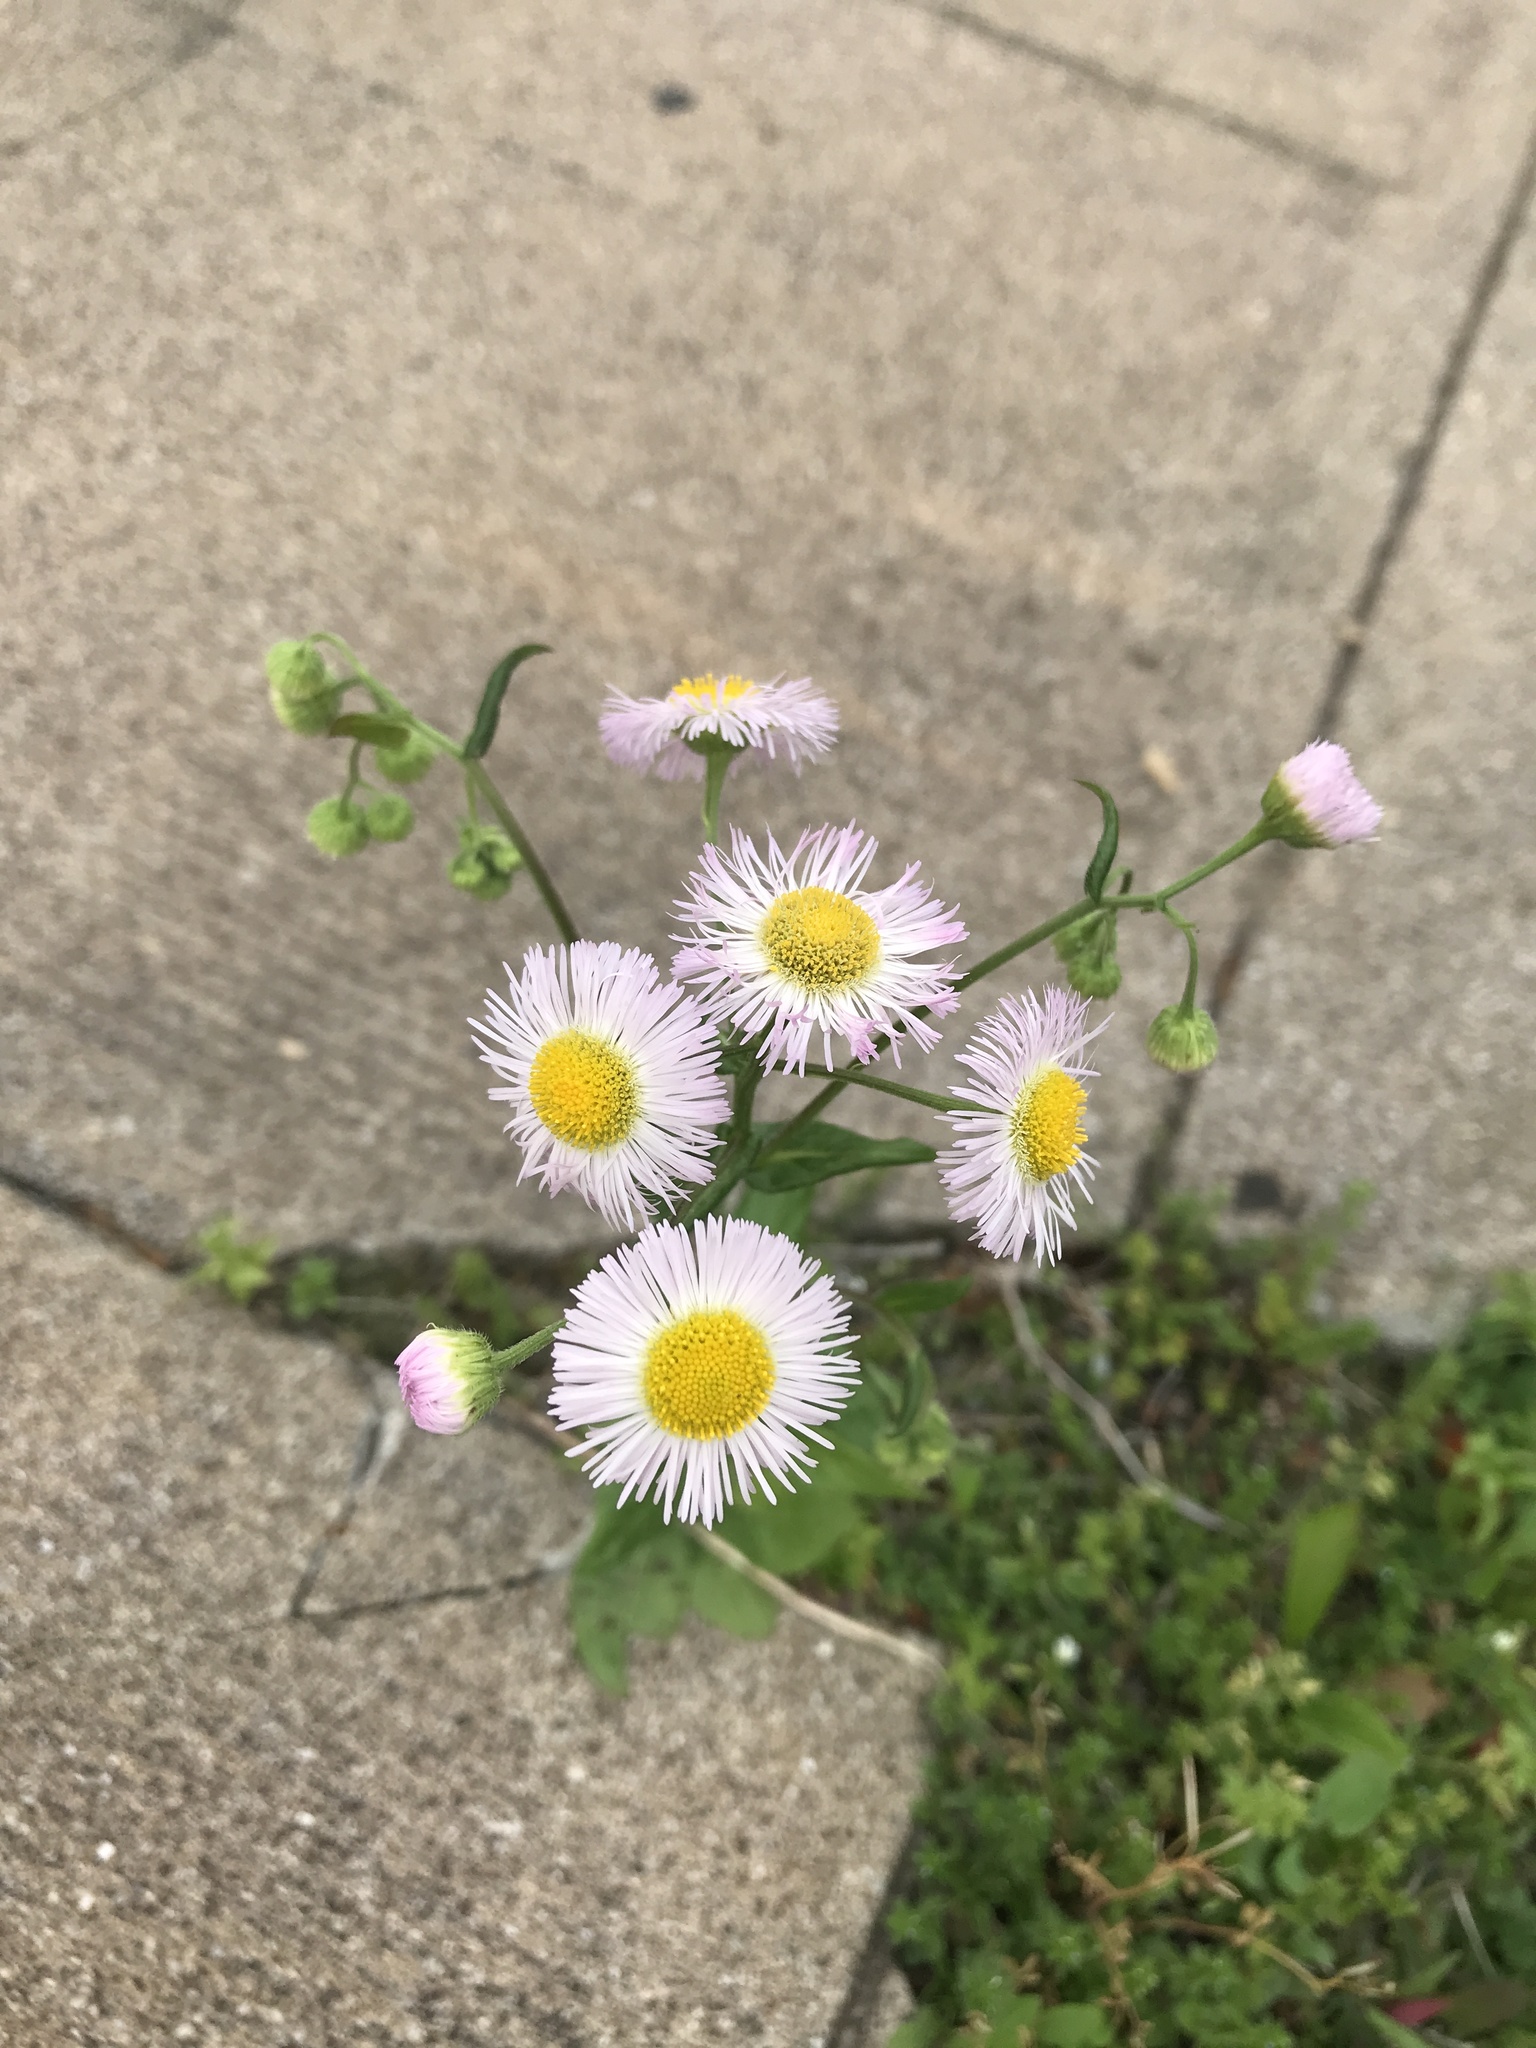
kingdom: Plantae
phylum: Tracheophyta
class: Magnoliopsida
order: Asterales
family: Asteraceae
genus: Erigeron
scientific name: Erigeron philadelphicus
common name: Robin's-plantain
